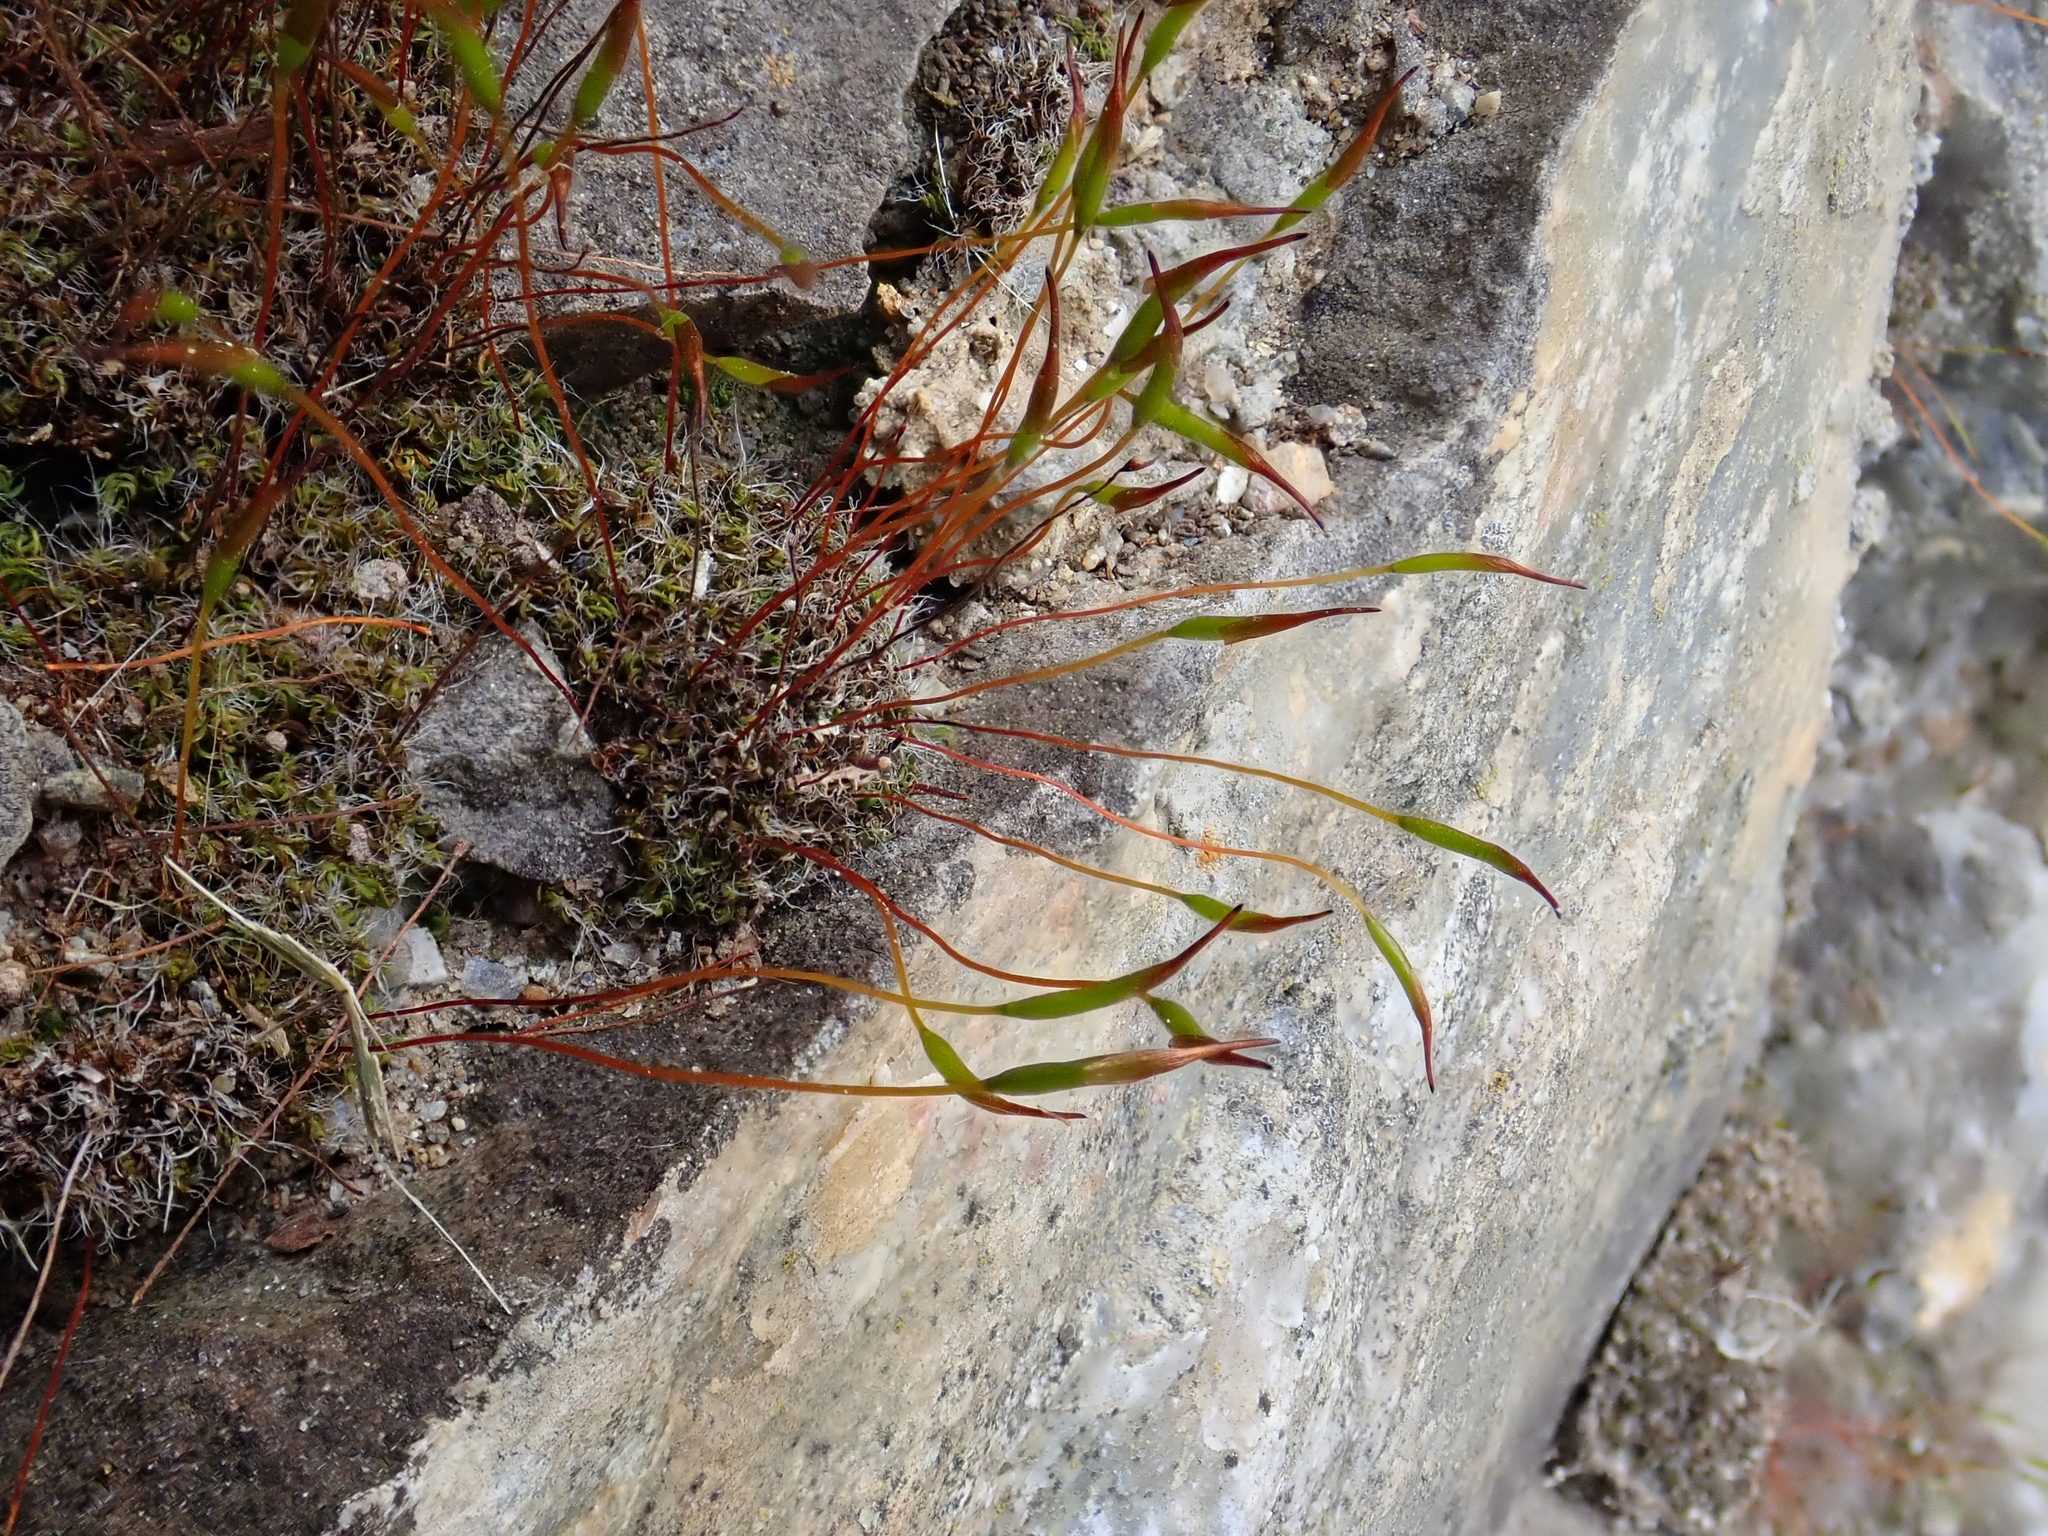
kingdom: Plantae
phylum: Bryophyta
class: Bryopsida
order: Pottiales
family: Pottiaceae
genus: Tortula
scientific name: Tortula muralis
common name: Wall screw-moss
